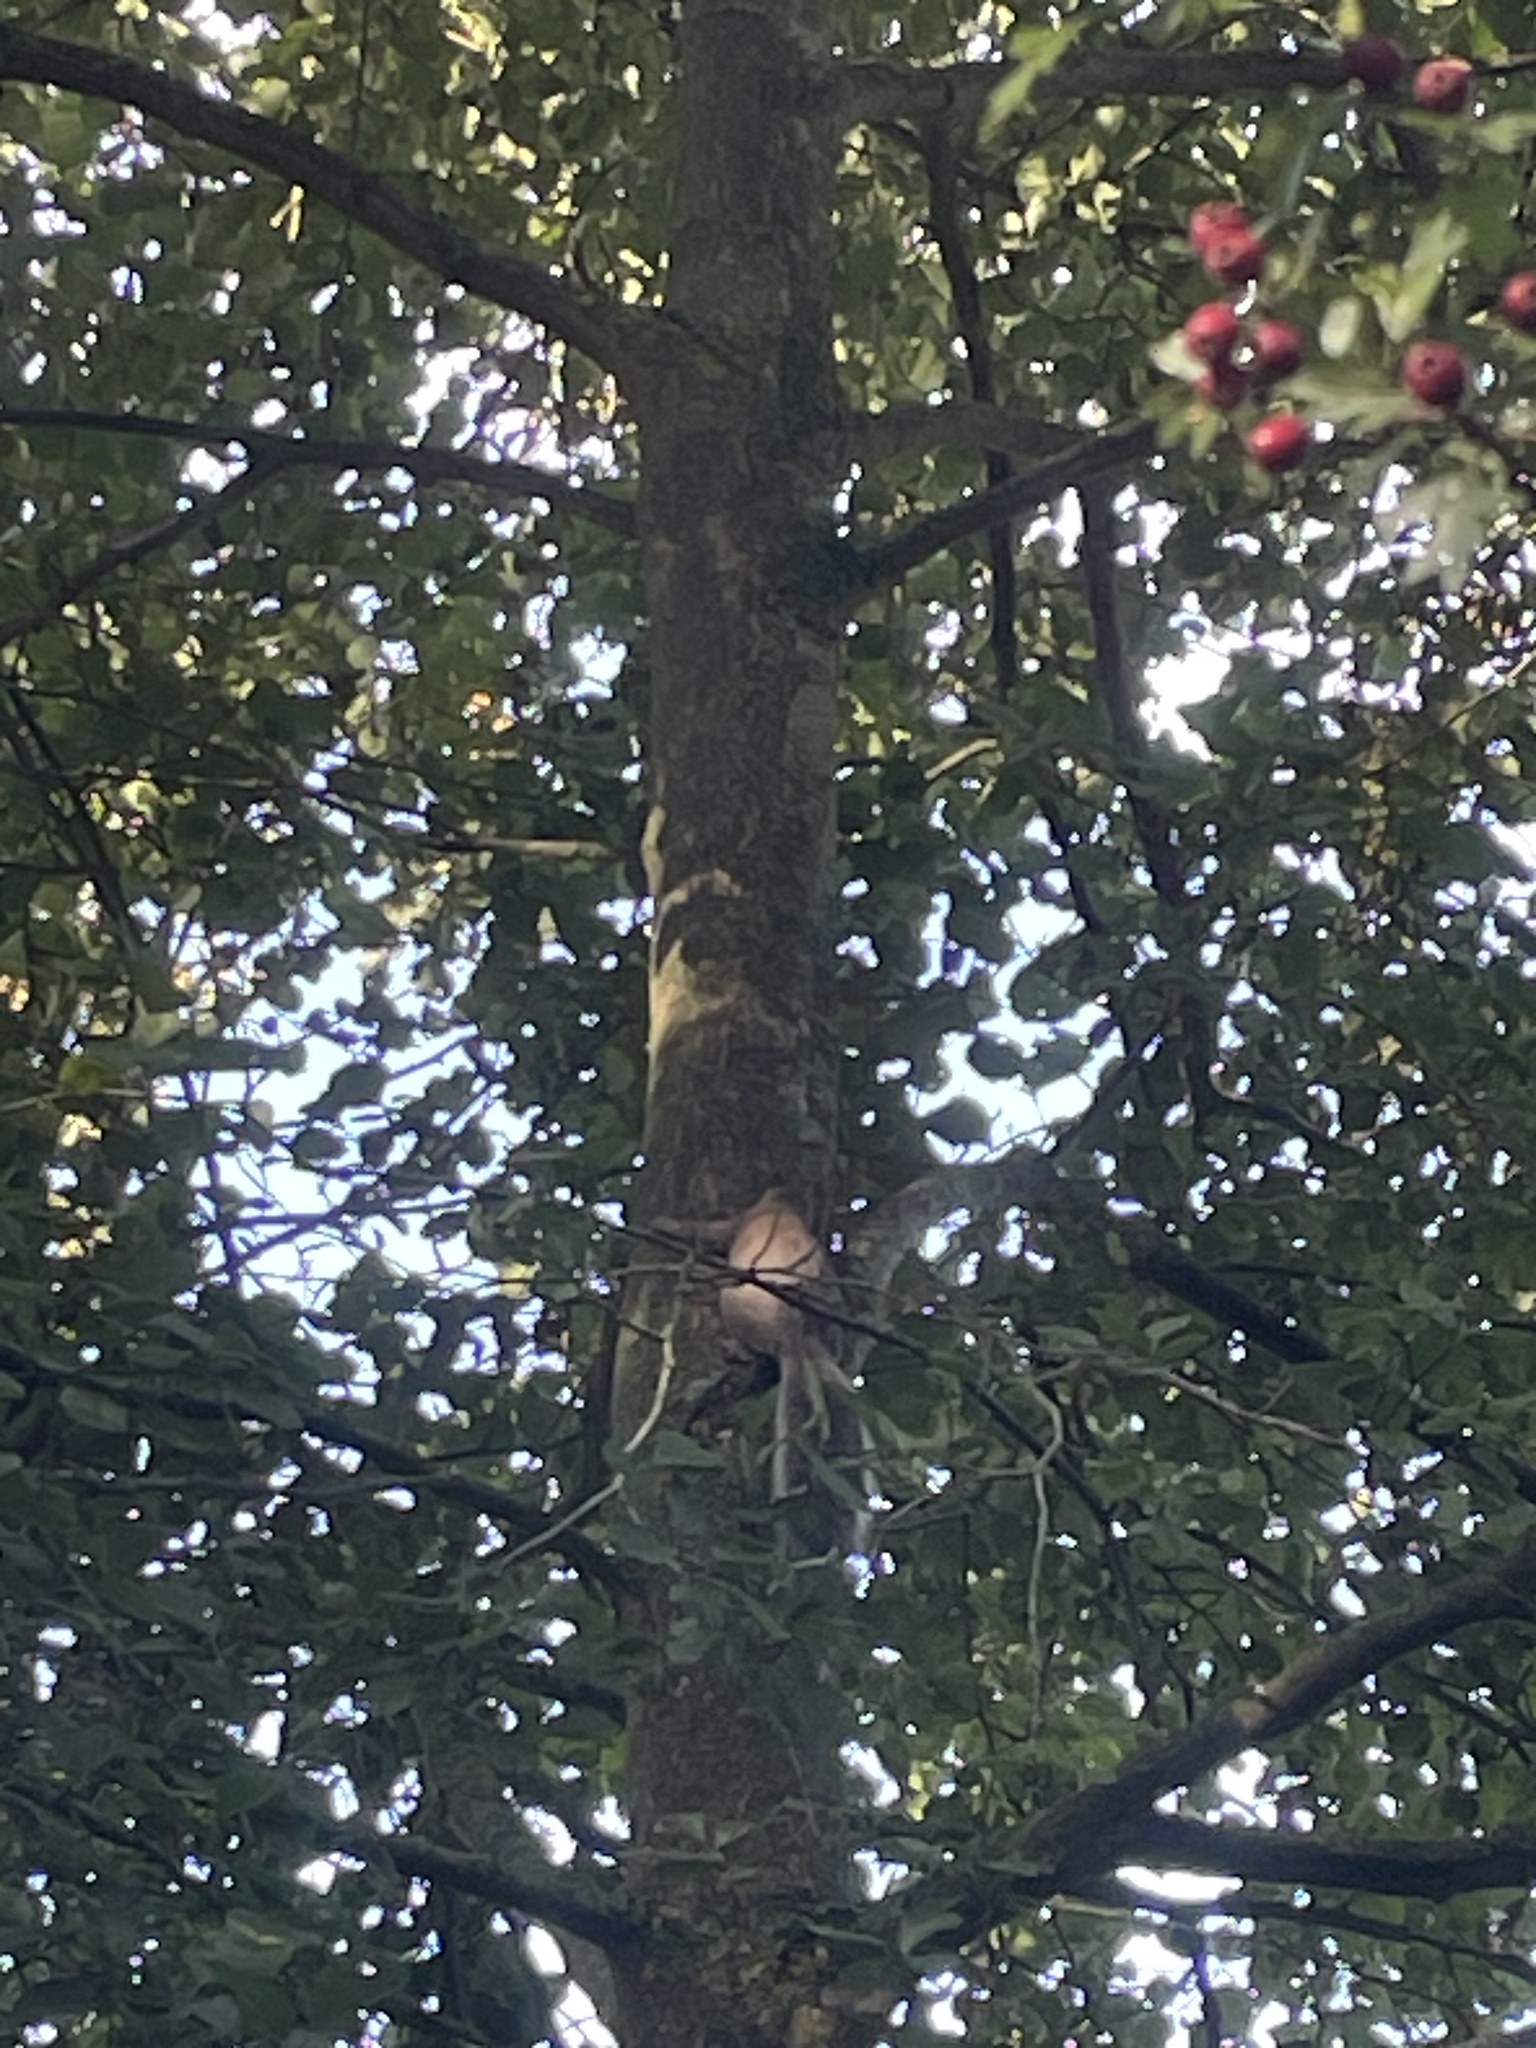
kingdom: Animalia
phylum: Chordata
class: Mammalia
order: Rodentia
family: Sciuridae
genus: Sciurus
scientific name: Sciurus carolinensis
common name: Eastern gray squirrel
